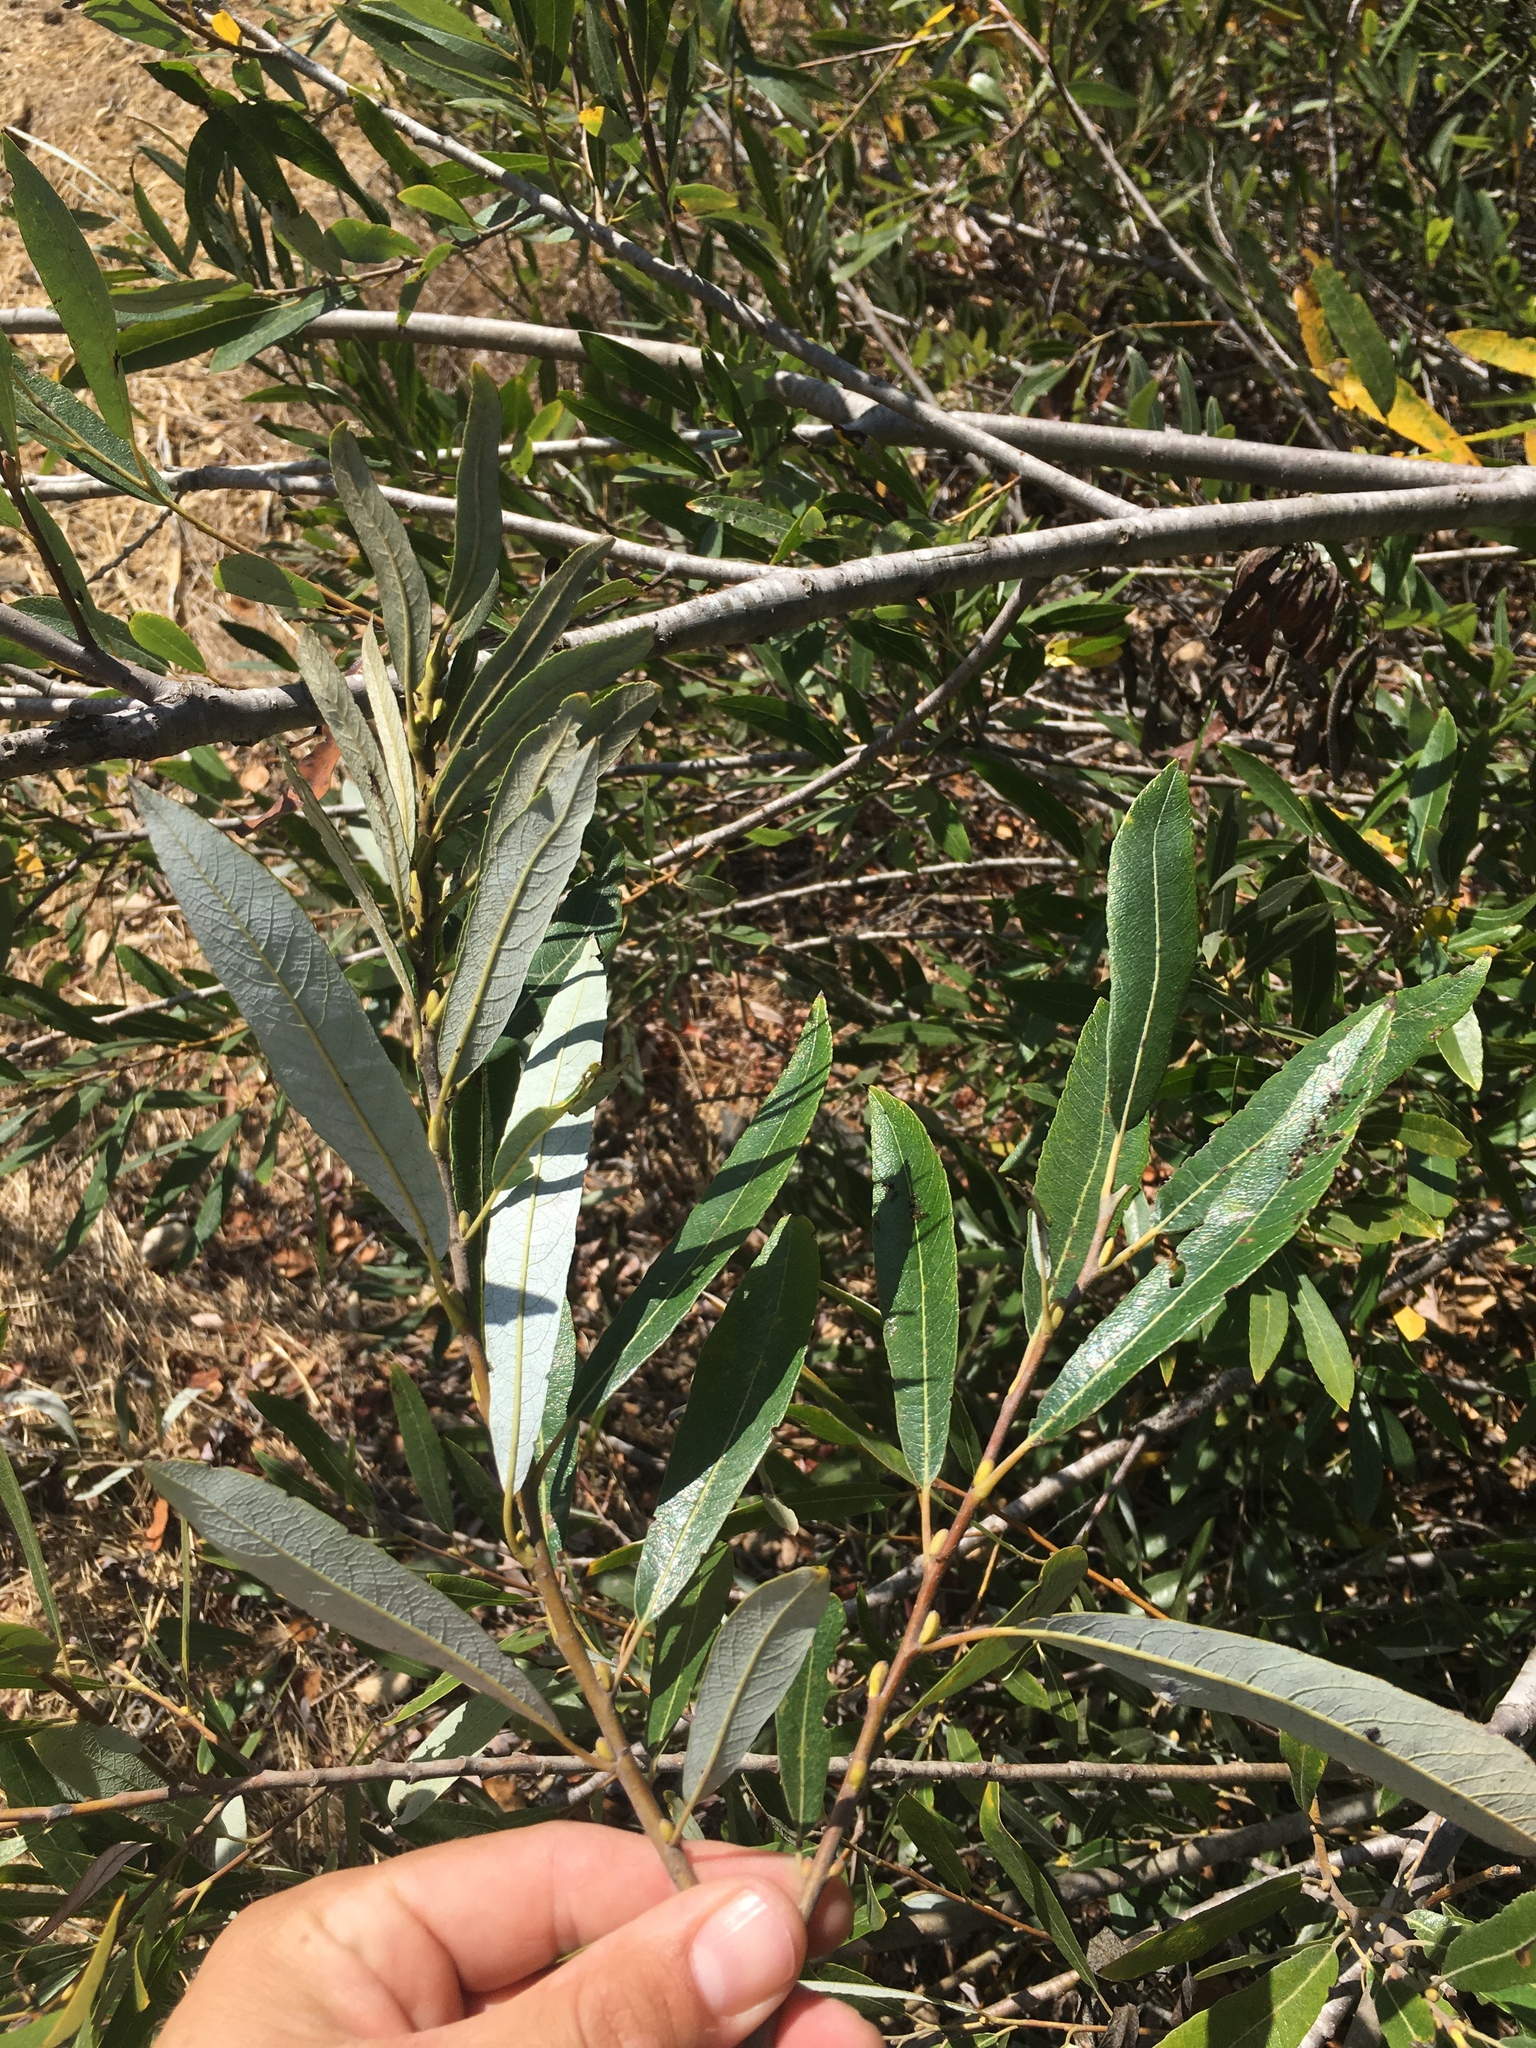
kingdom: Plantae
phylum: Tracheophyta
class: Magnoliopsida
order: Malpighiales
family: Salicaceae
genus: Salix
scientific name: Salix lasiolepis
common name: Arroyo willow
